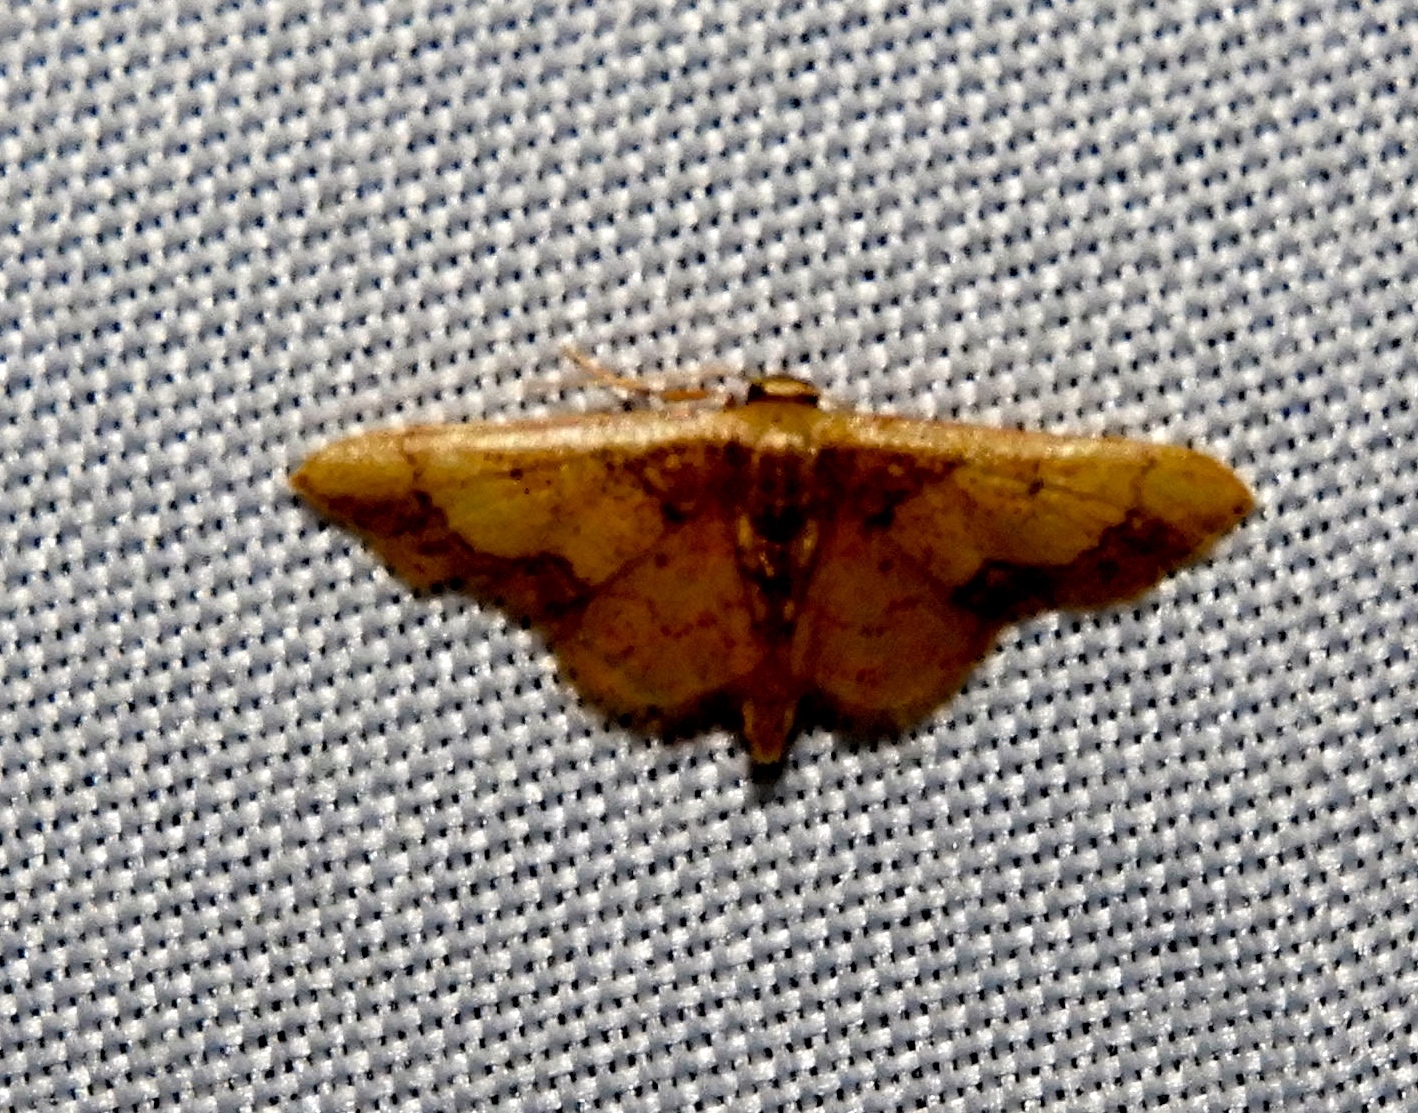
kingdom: Animalia
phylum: Arthropoda
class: Insecta
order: Lepidoptera
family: Geometridae
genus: Idaea
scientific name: Idaea
